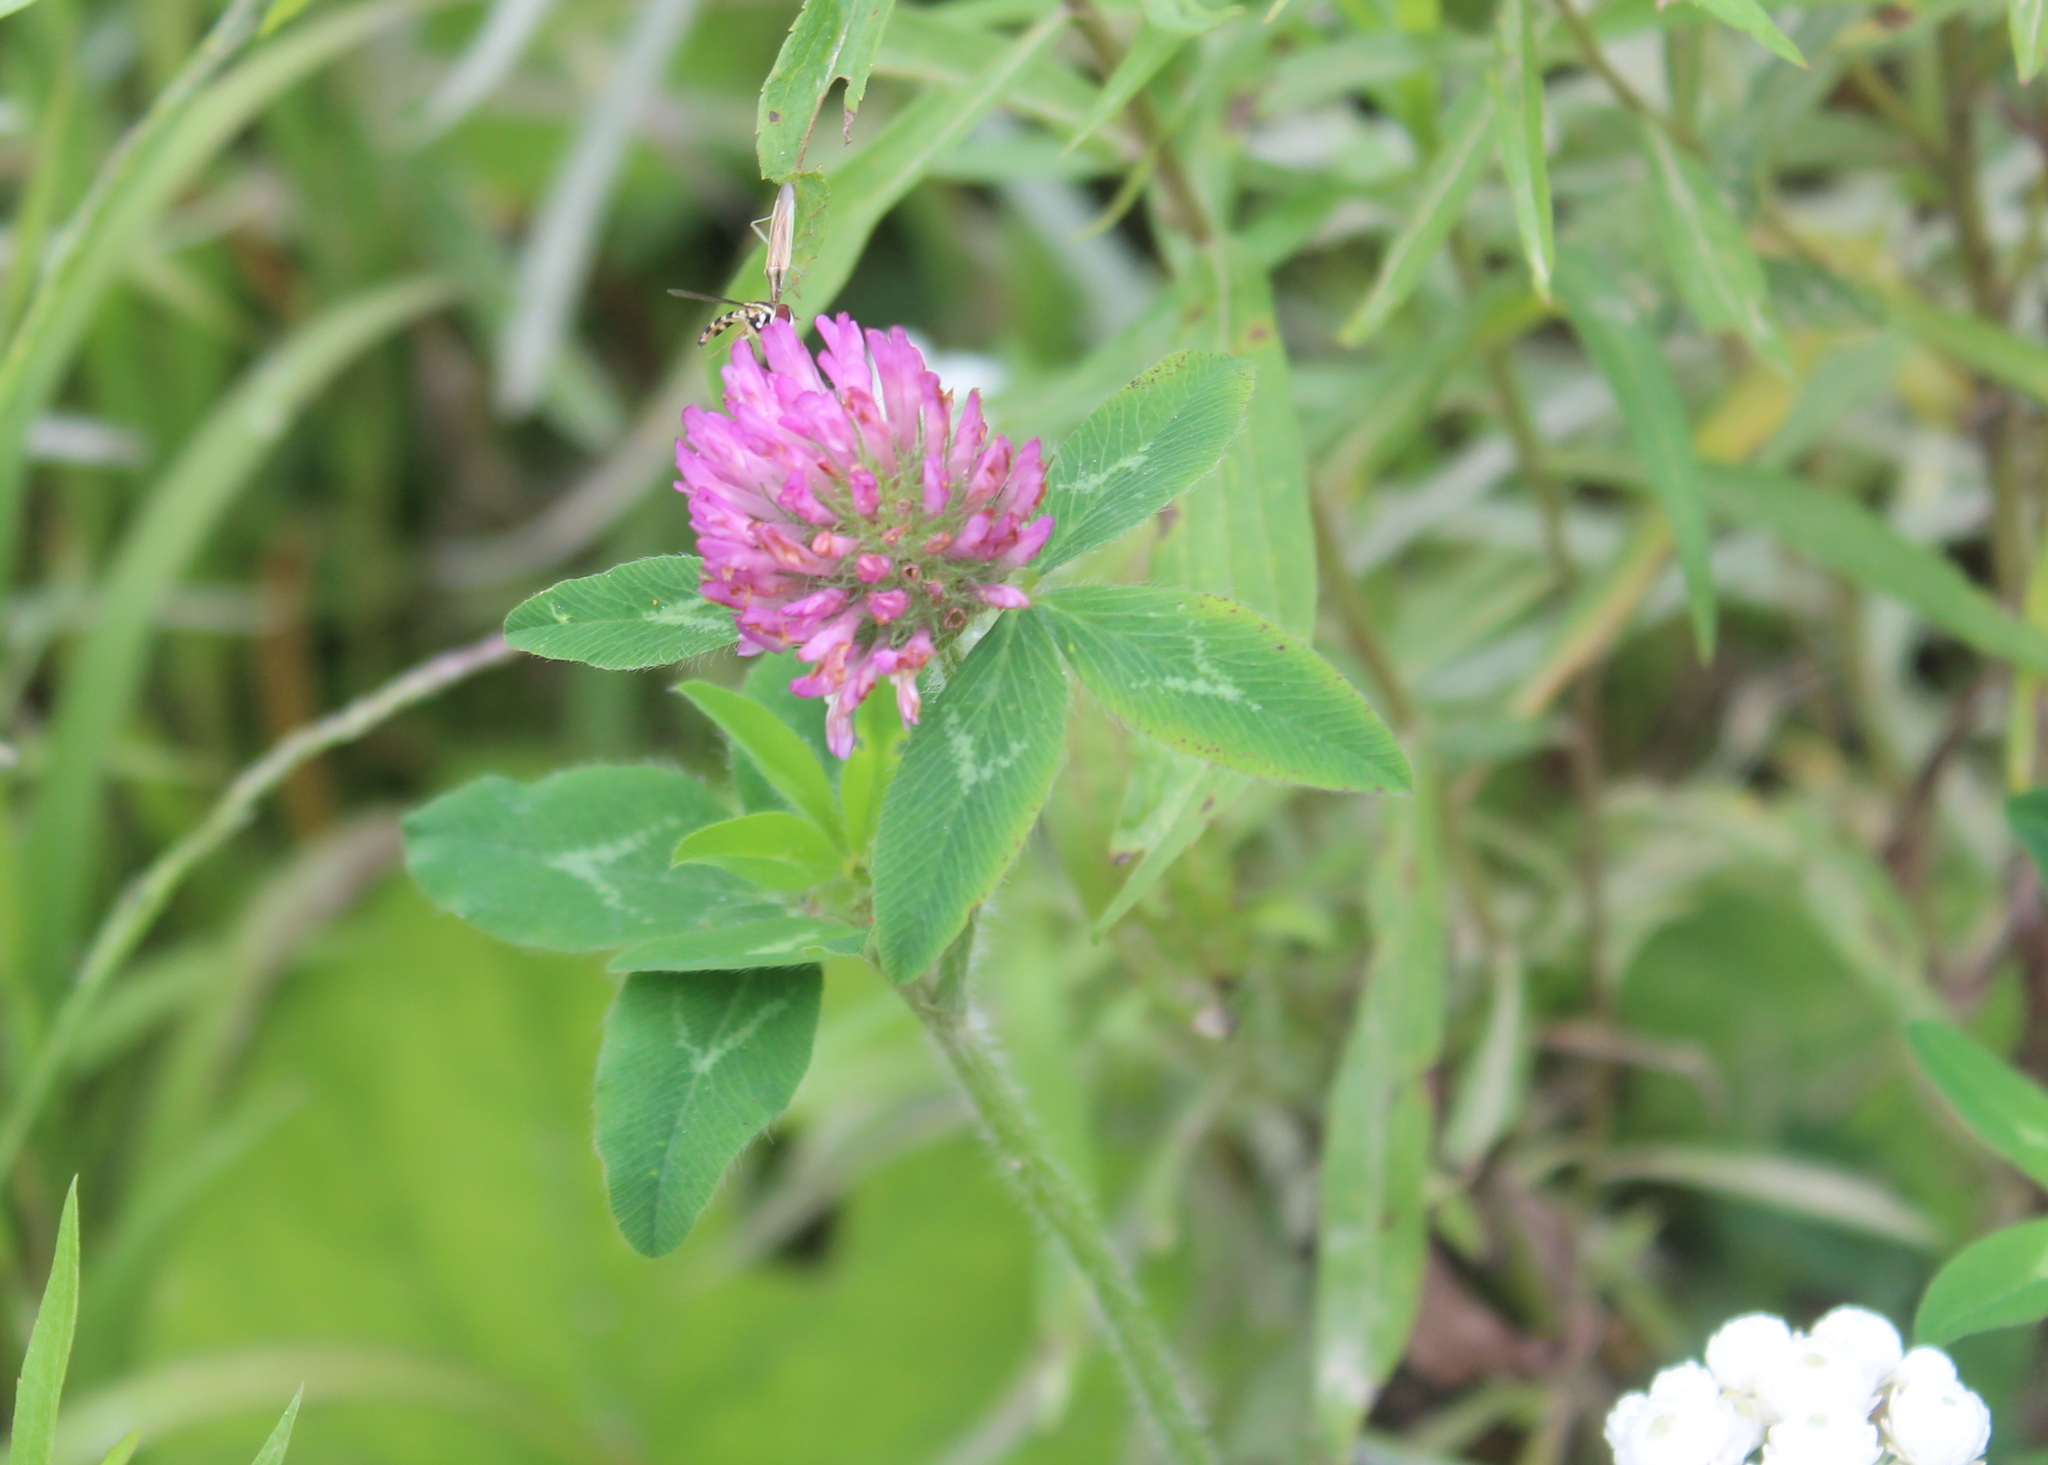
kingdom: Plantae
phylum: Tracheophyta
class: Magnoliopsida
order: Fabales
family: Fabaceae
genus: Trifolium
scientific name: Trifolium pratense
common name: Red clover
